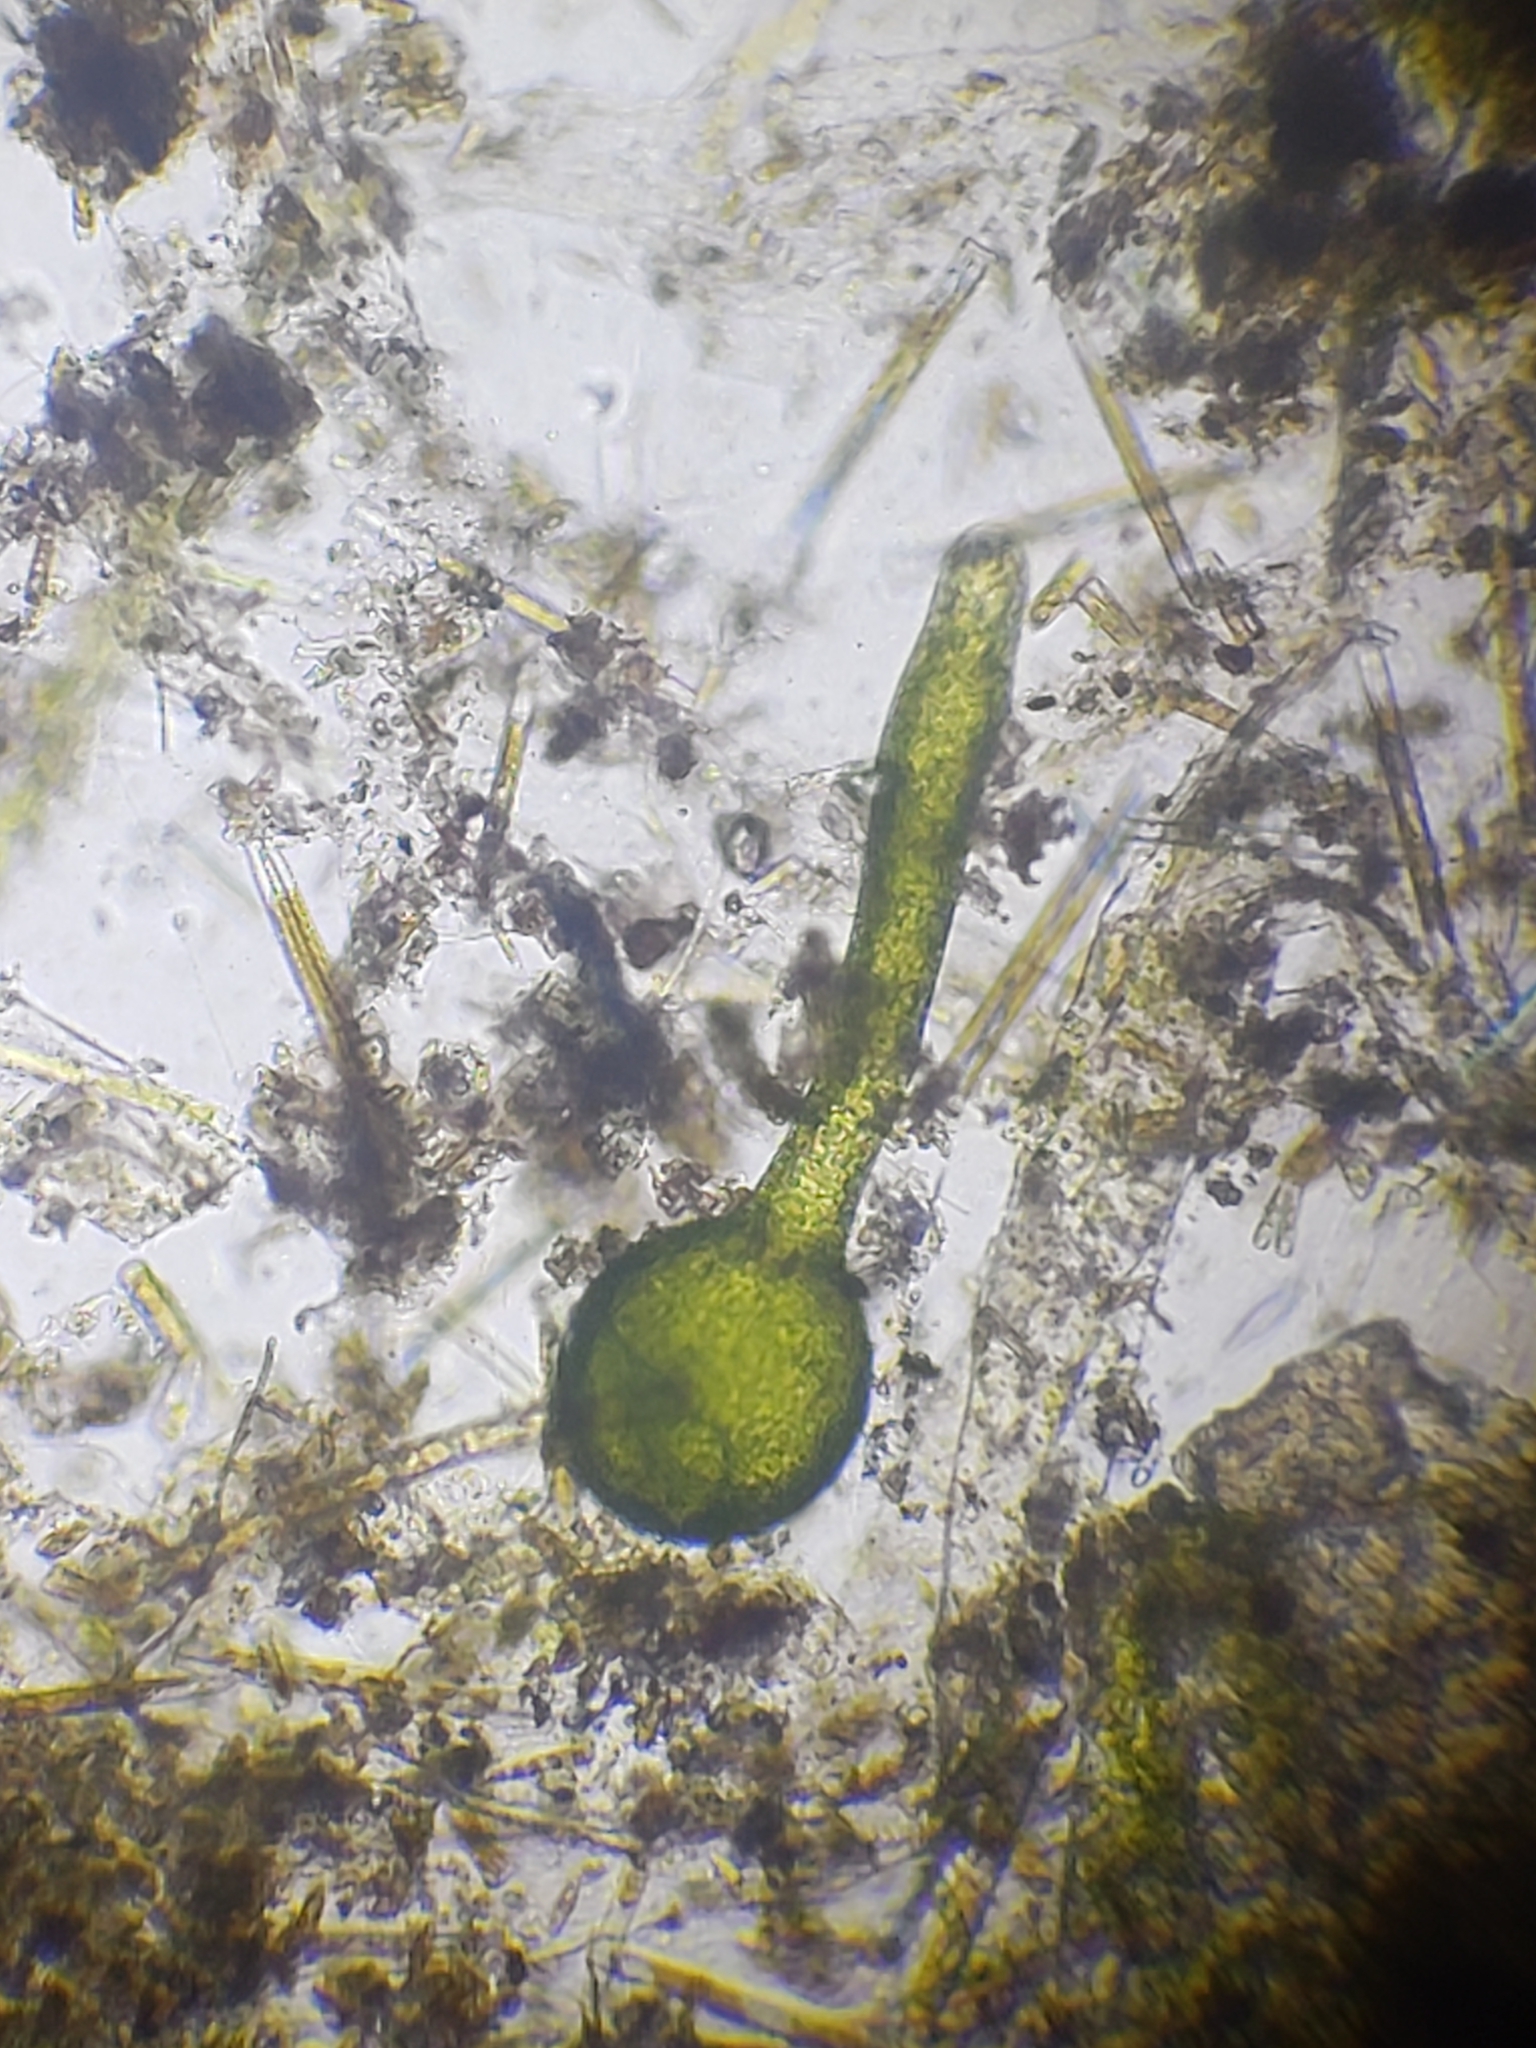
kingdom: Chromista
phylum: Ochrophyta
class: Xanthophyceae
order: Vaucheriales
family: Vaucheriaceae
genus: Vaucheria
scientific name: Vaucheria
